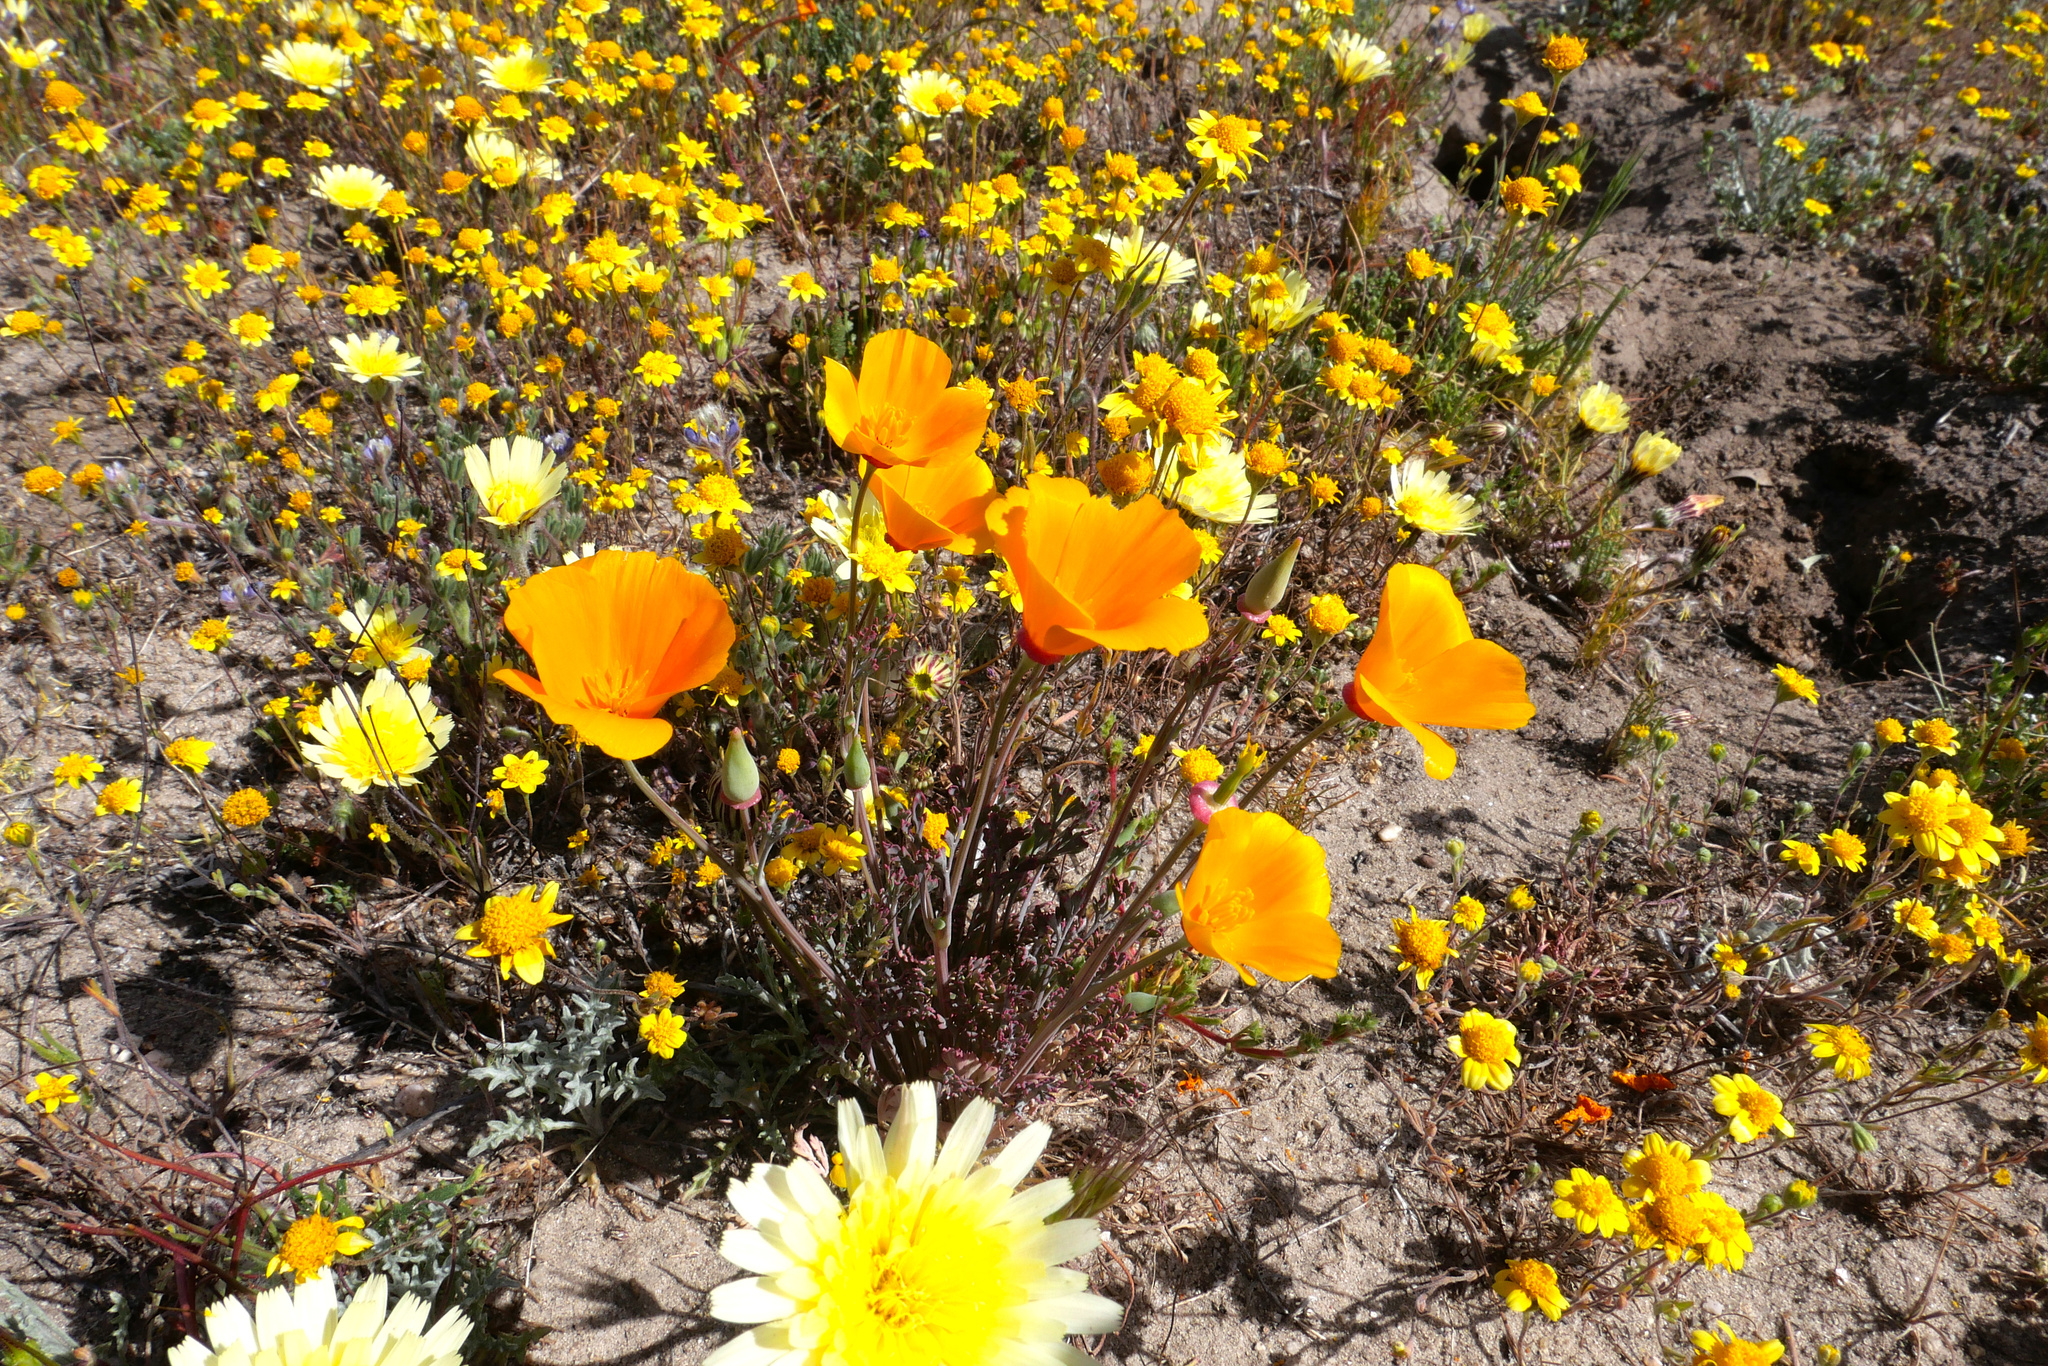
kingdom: Plantae
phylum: Tracheophyta
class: Magnoliopsida
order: Ranunculales
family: Papaveraceae
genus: Eschscholzia
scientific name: Eschscholzia californica
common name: California poppy
